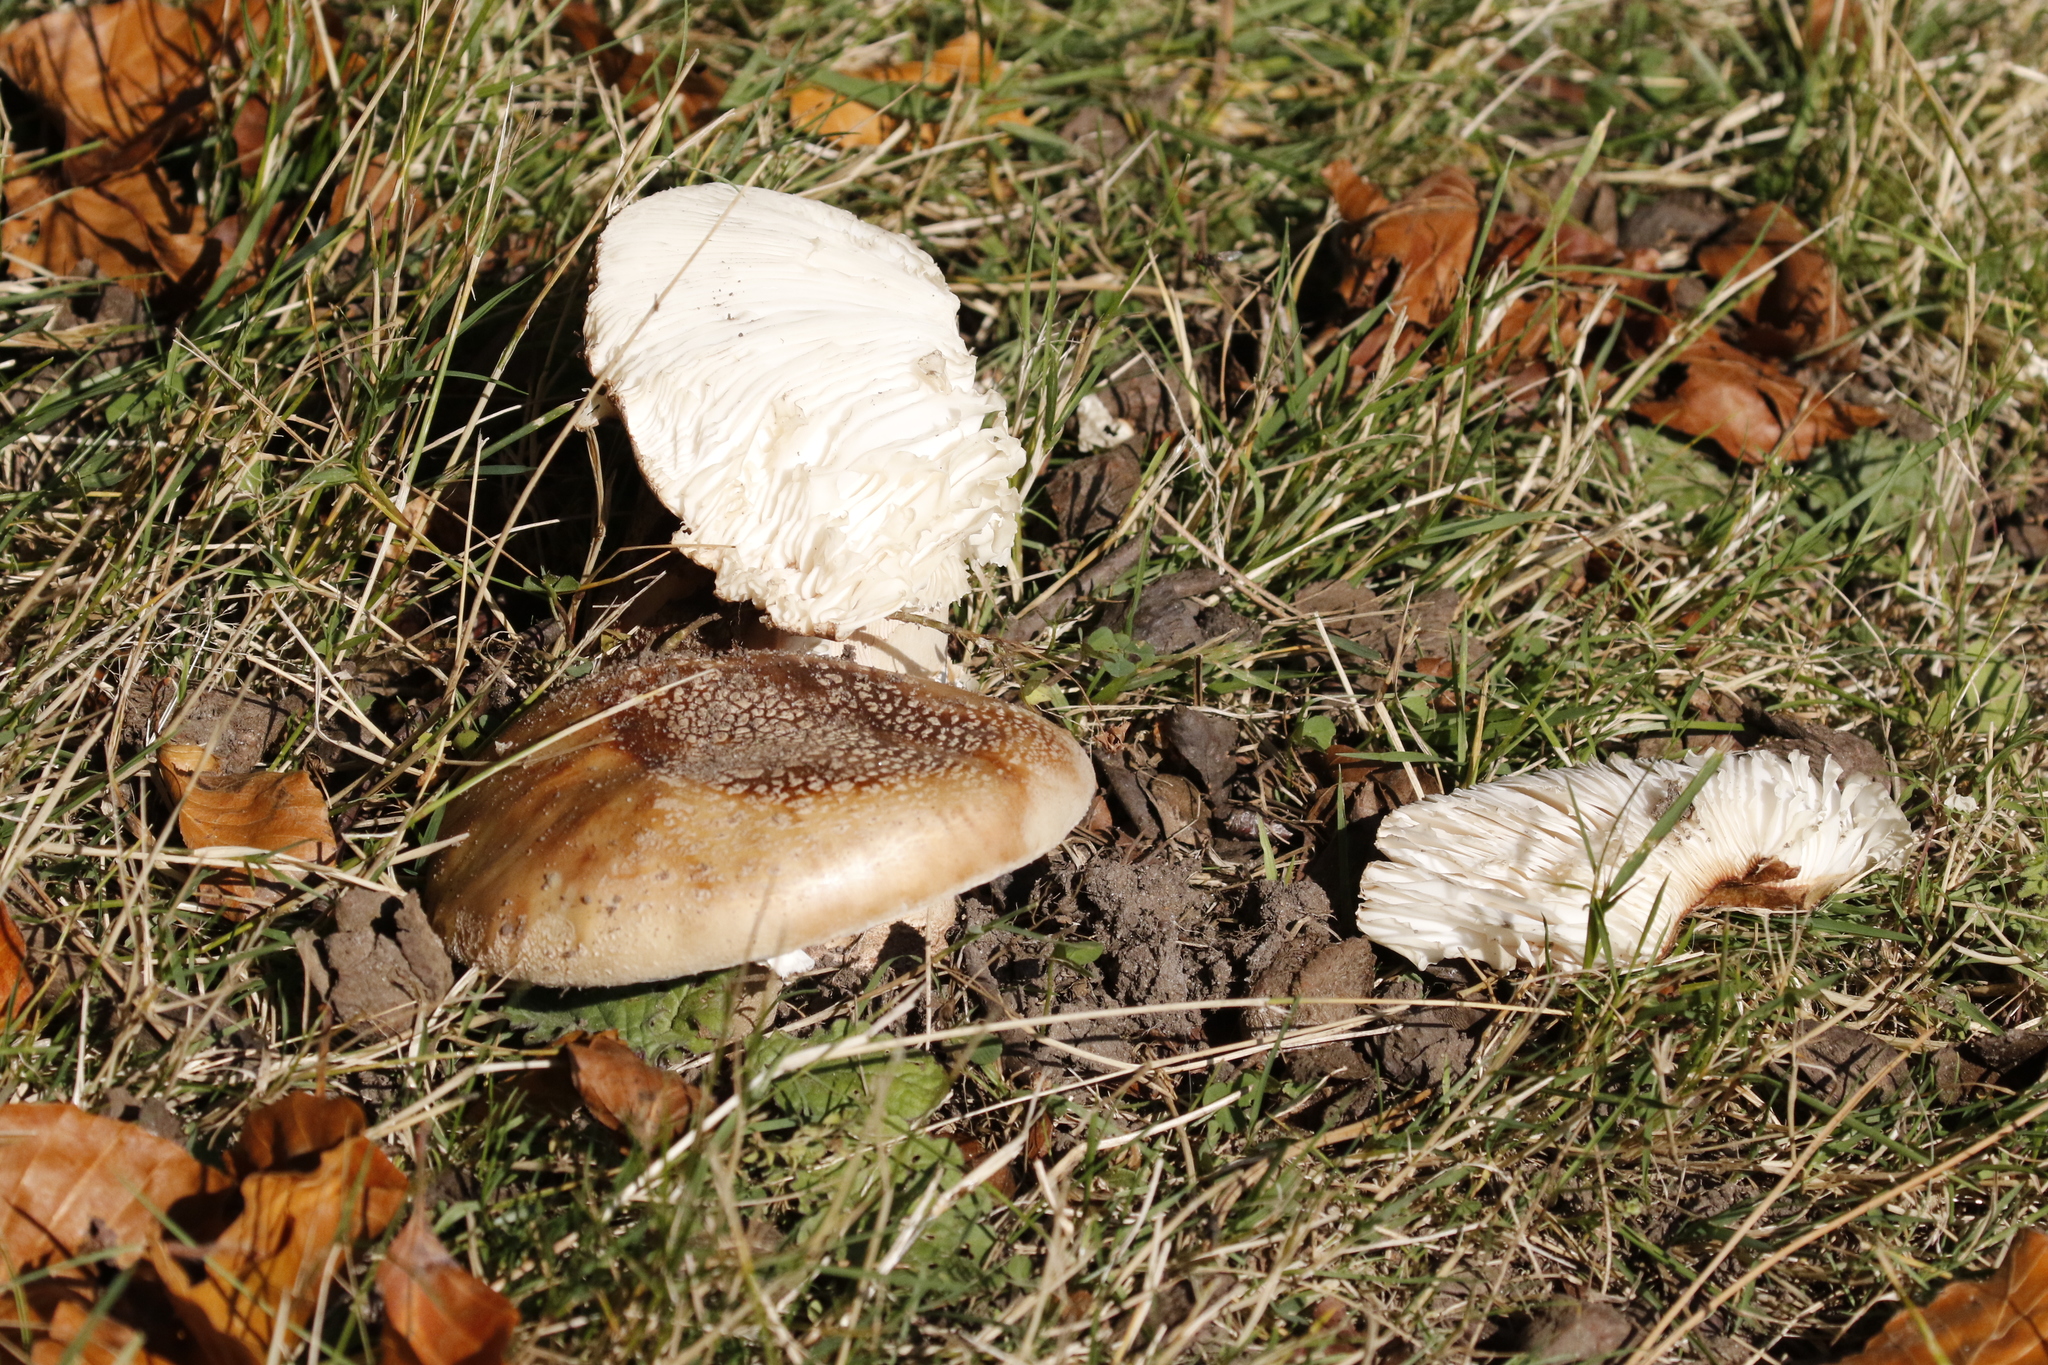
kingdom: Fungi
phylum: Basidiomycota
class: Agaricomycetes
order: Agaricales
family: Amanitaceae
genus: Amanita
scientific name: Amanita rubescens
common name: Blusher
